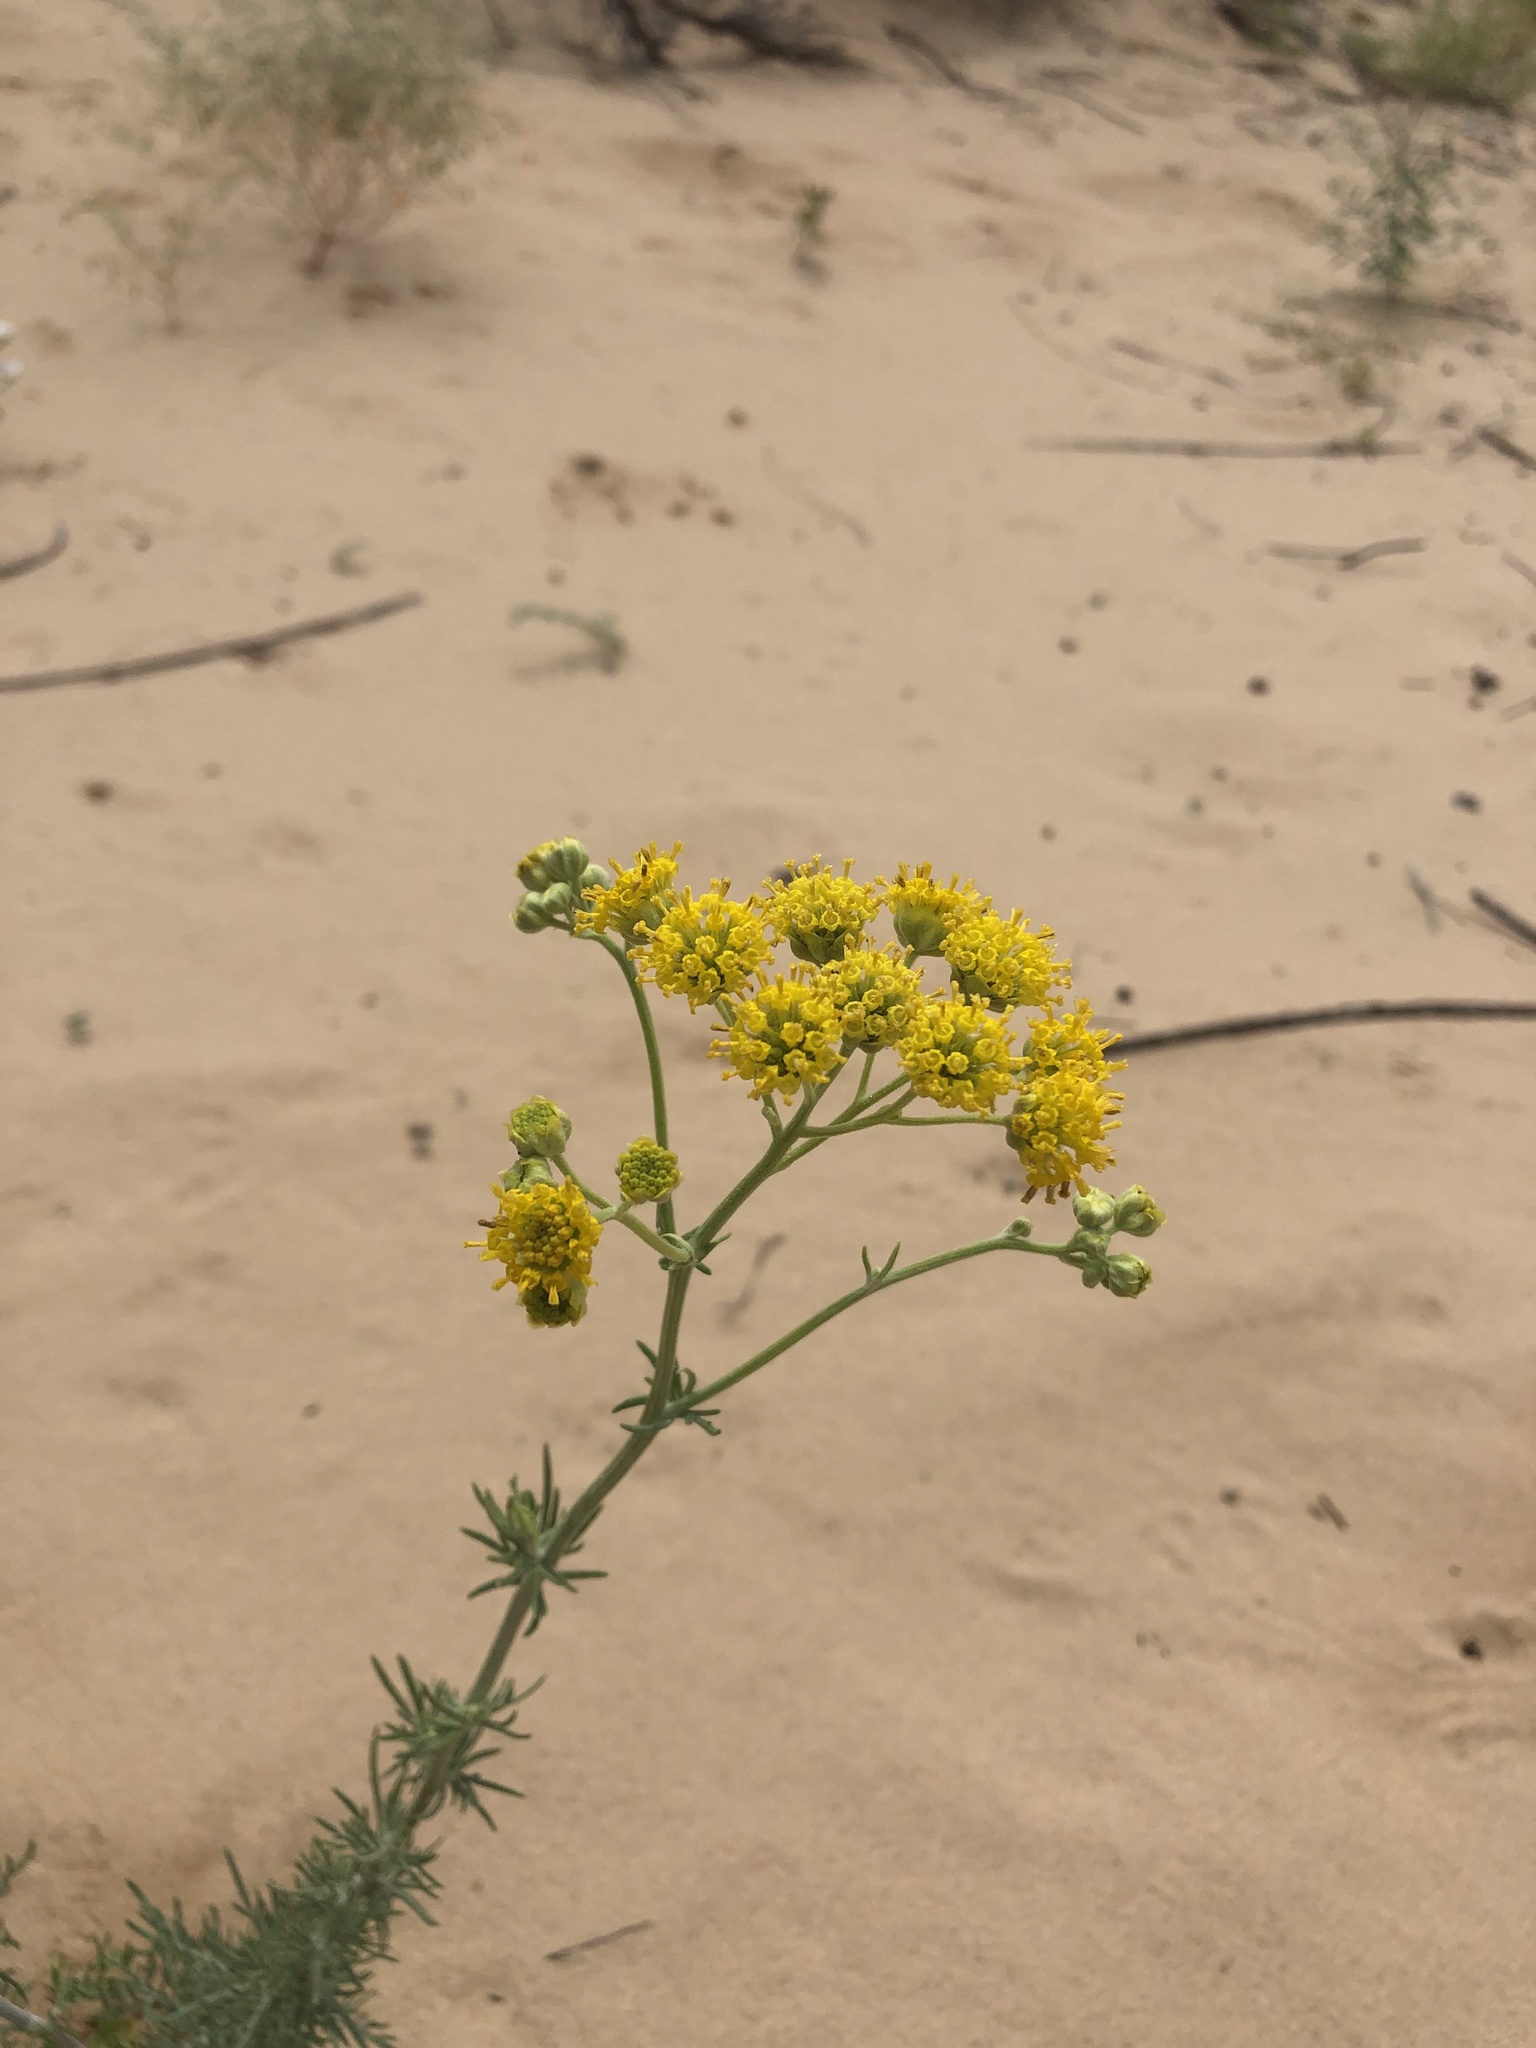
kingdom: Plantae
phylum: Tracheophyta
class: Magnoliopsida
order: Asterales
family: Asteraceae
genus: Hymenopappus
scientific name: Hymenopappus flavescens
